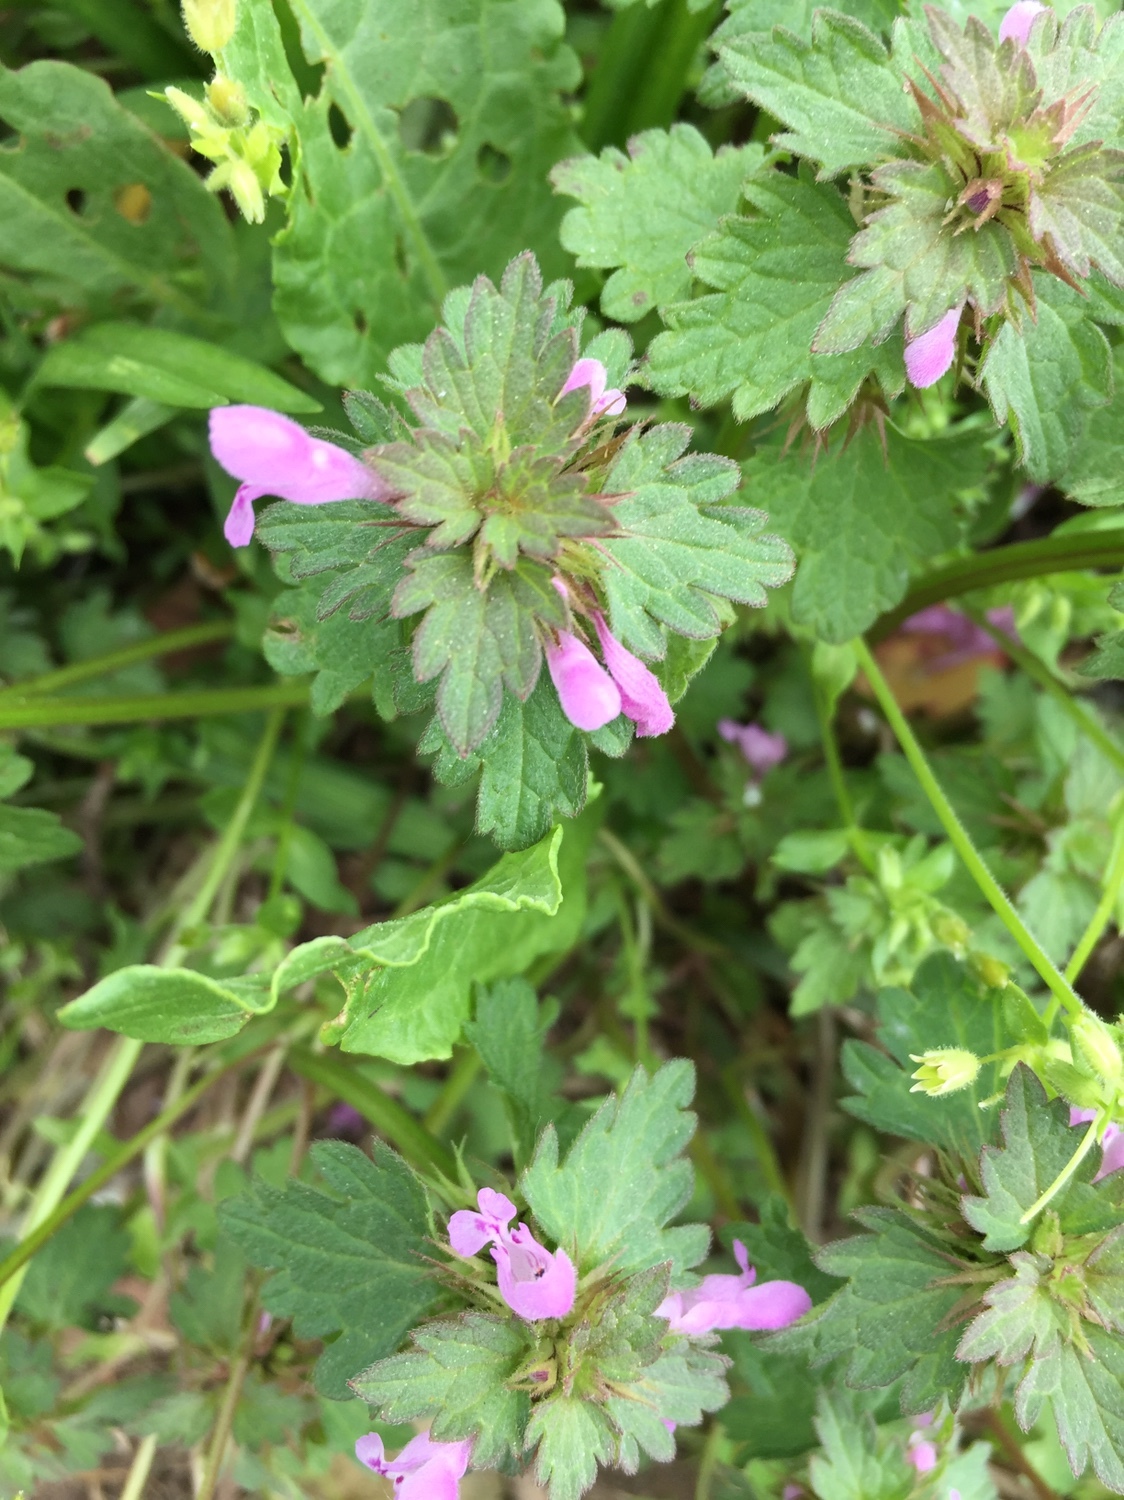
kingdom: Plantae
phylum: Tracheophyta
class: Magnoliopsida
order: Lamiales
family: Lamiaceae
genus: Lamium
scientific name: Lamium hybridum
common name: Cut-leaved dead-nettle
